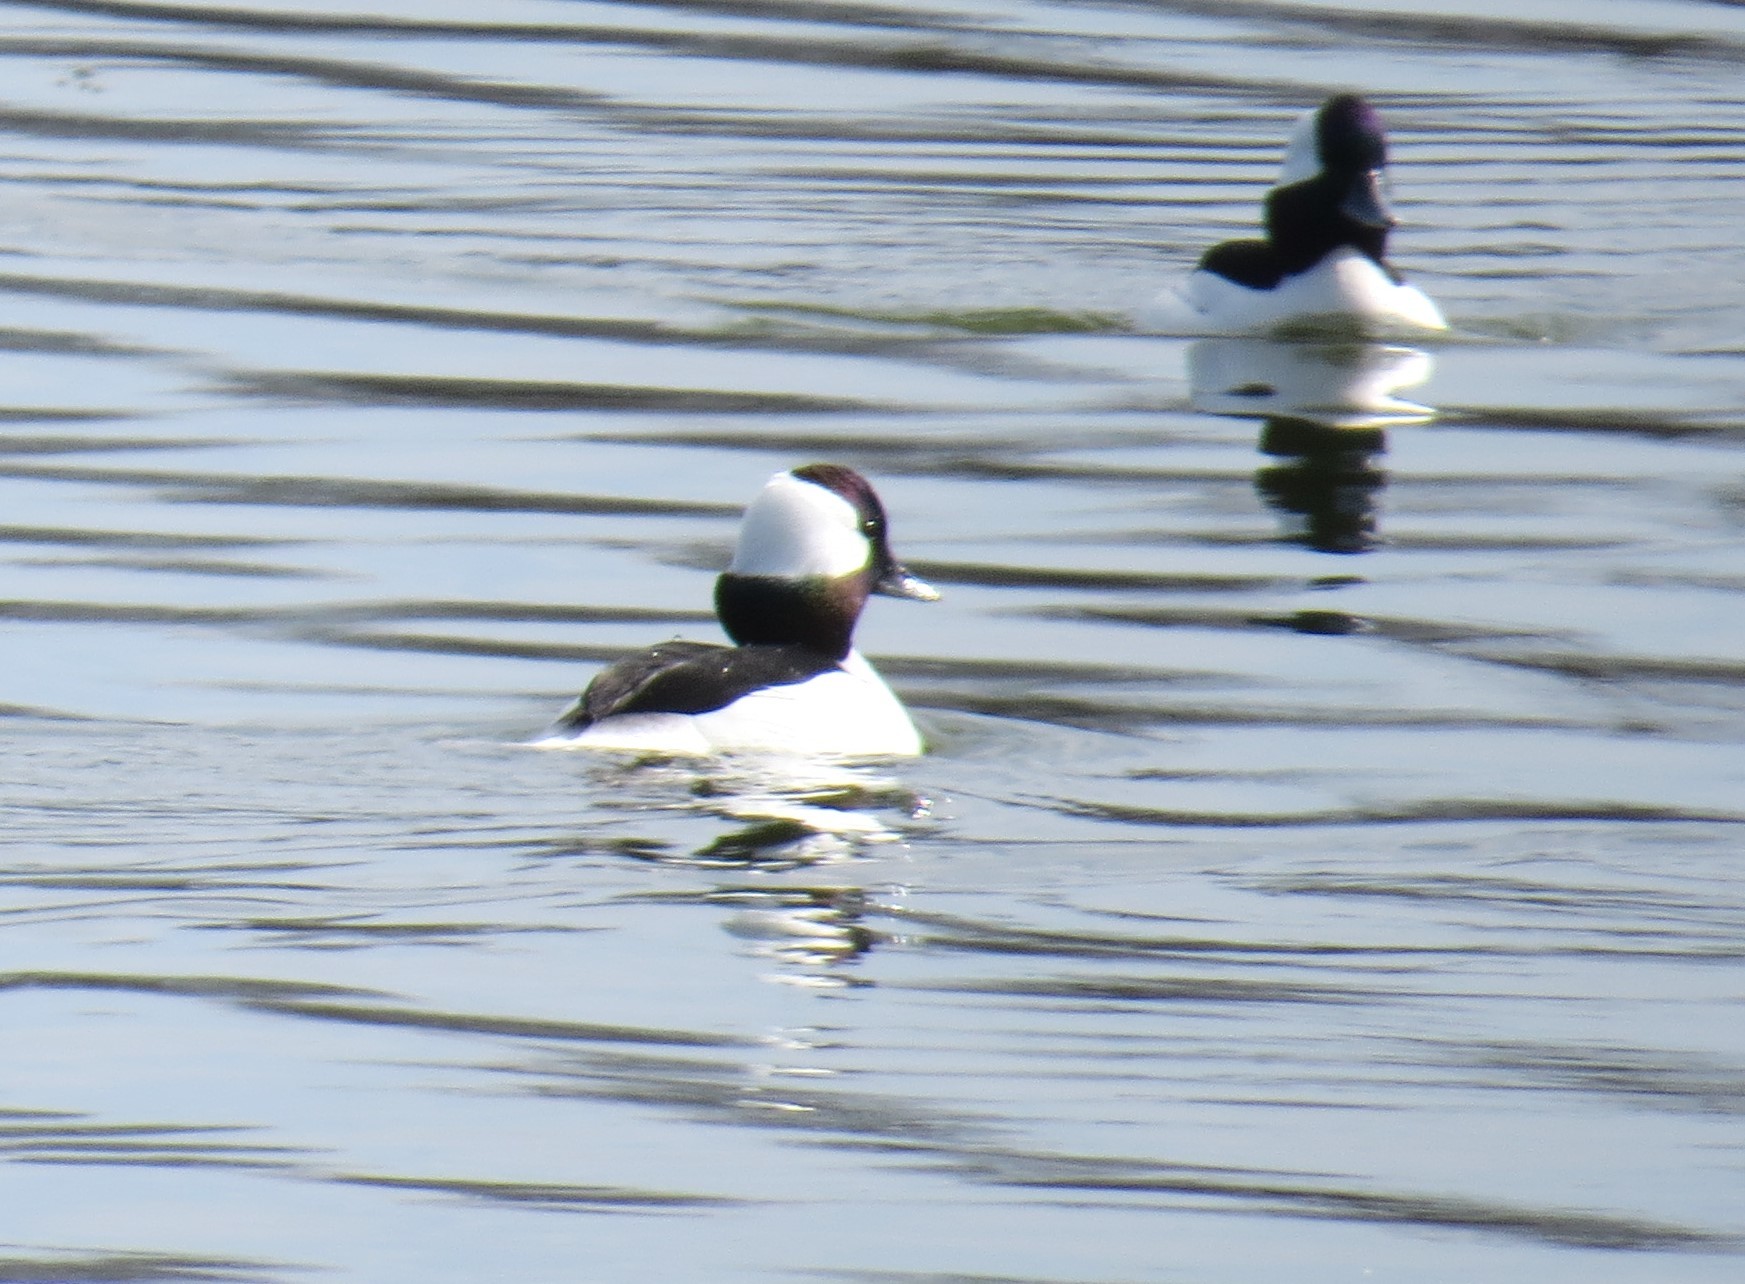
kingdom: Animalia
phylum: Chordata
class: Aves
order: Anseriformes
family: Anatidae
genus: Bucephala
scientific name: Bucephala albeola
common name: Bufflehead
